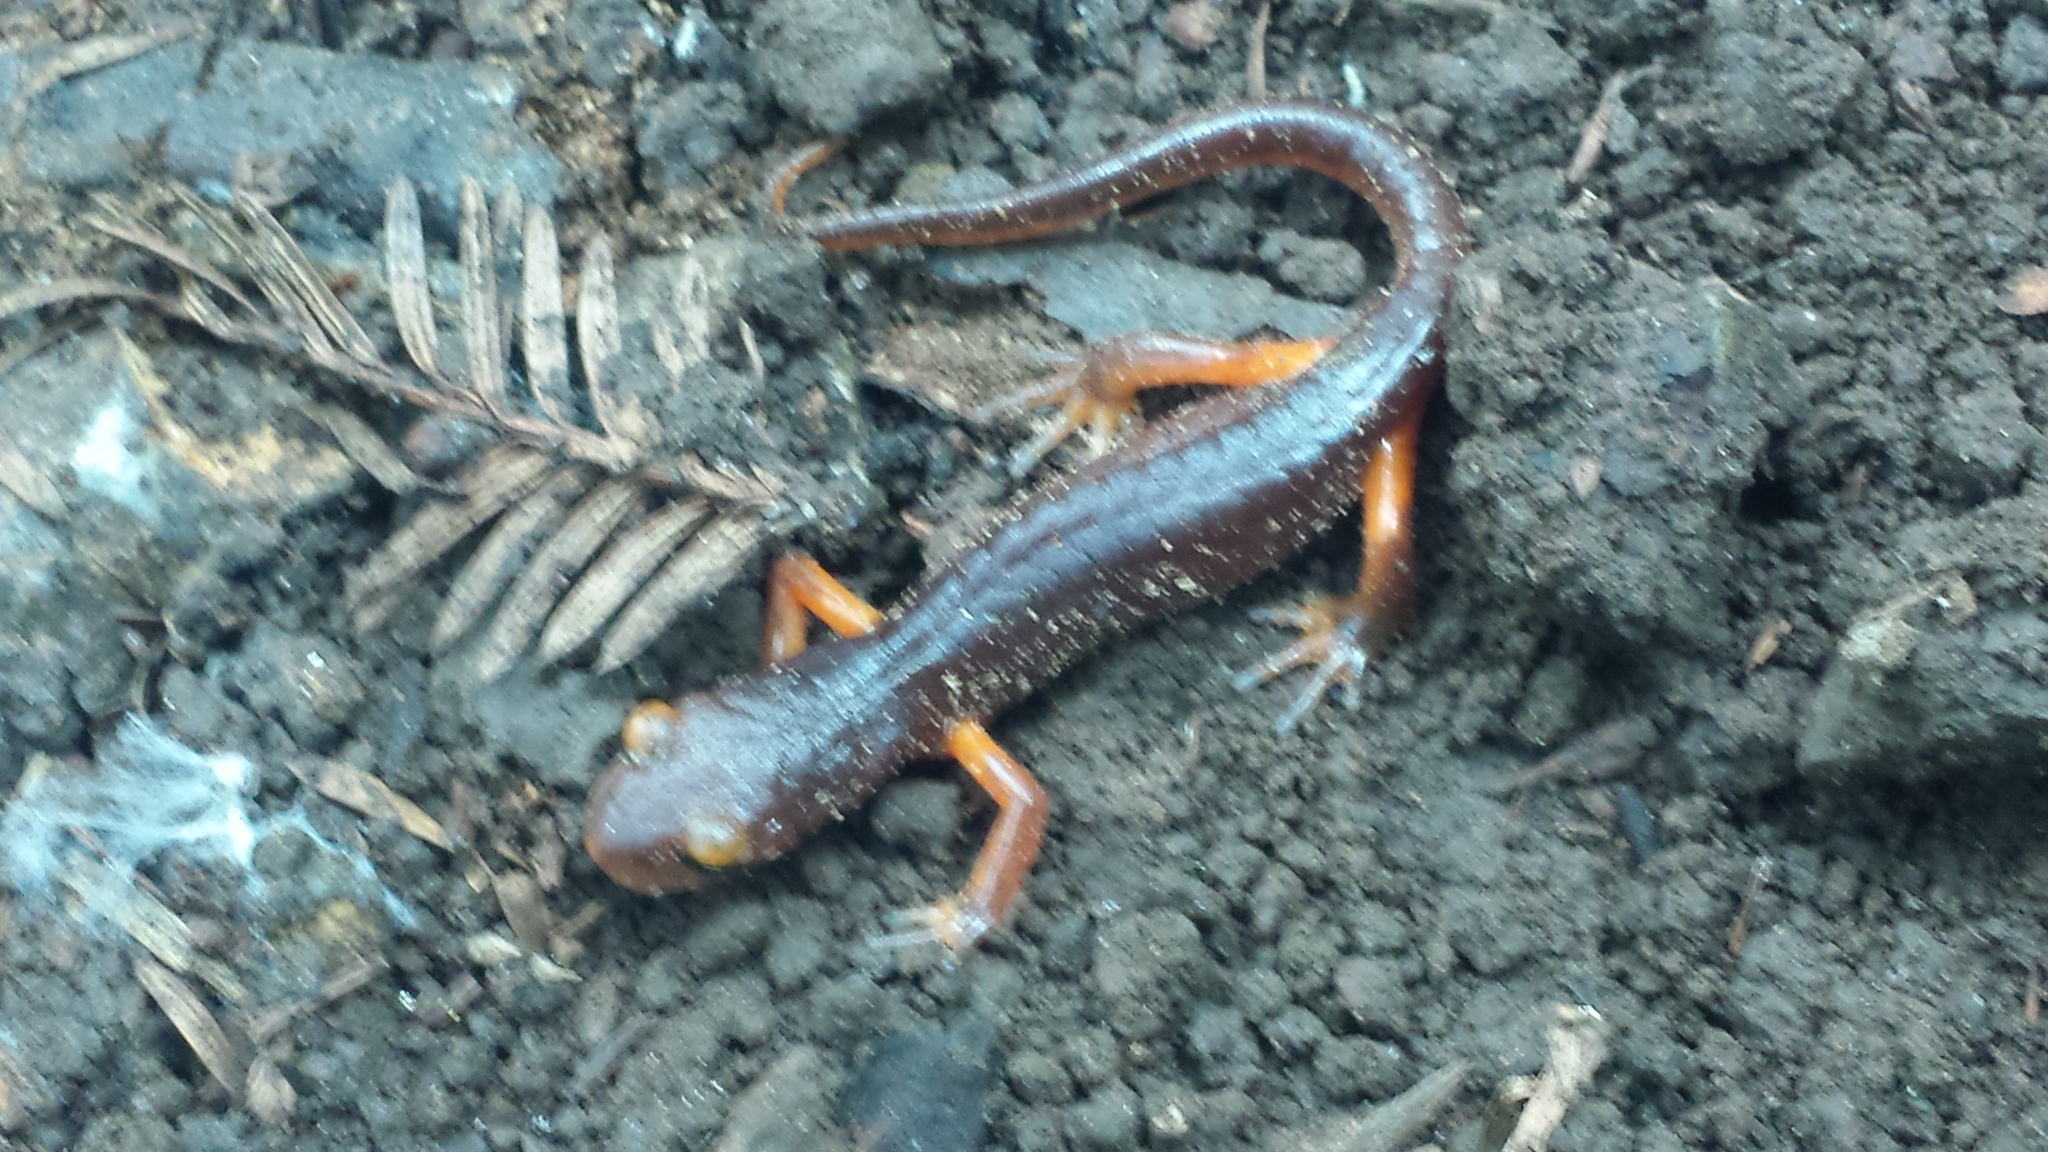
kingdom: Animalia
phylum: Chordata
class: Amphibia
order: Caudata
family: Plethodontidae
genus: Ensatina
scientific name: Ensatina eschscholtzii
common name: Ensatina
